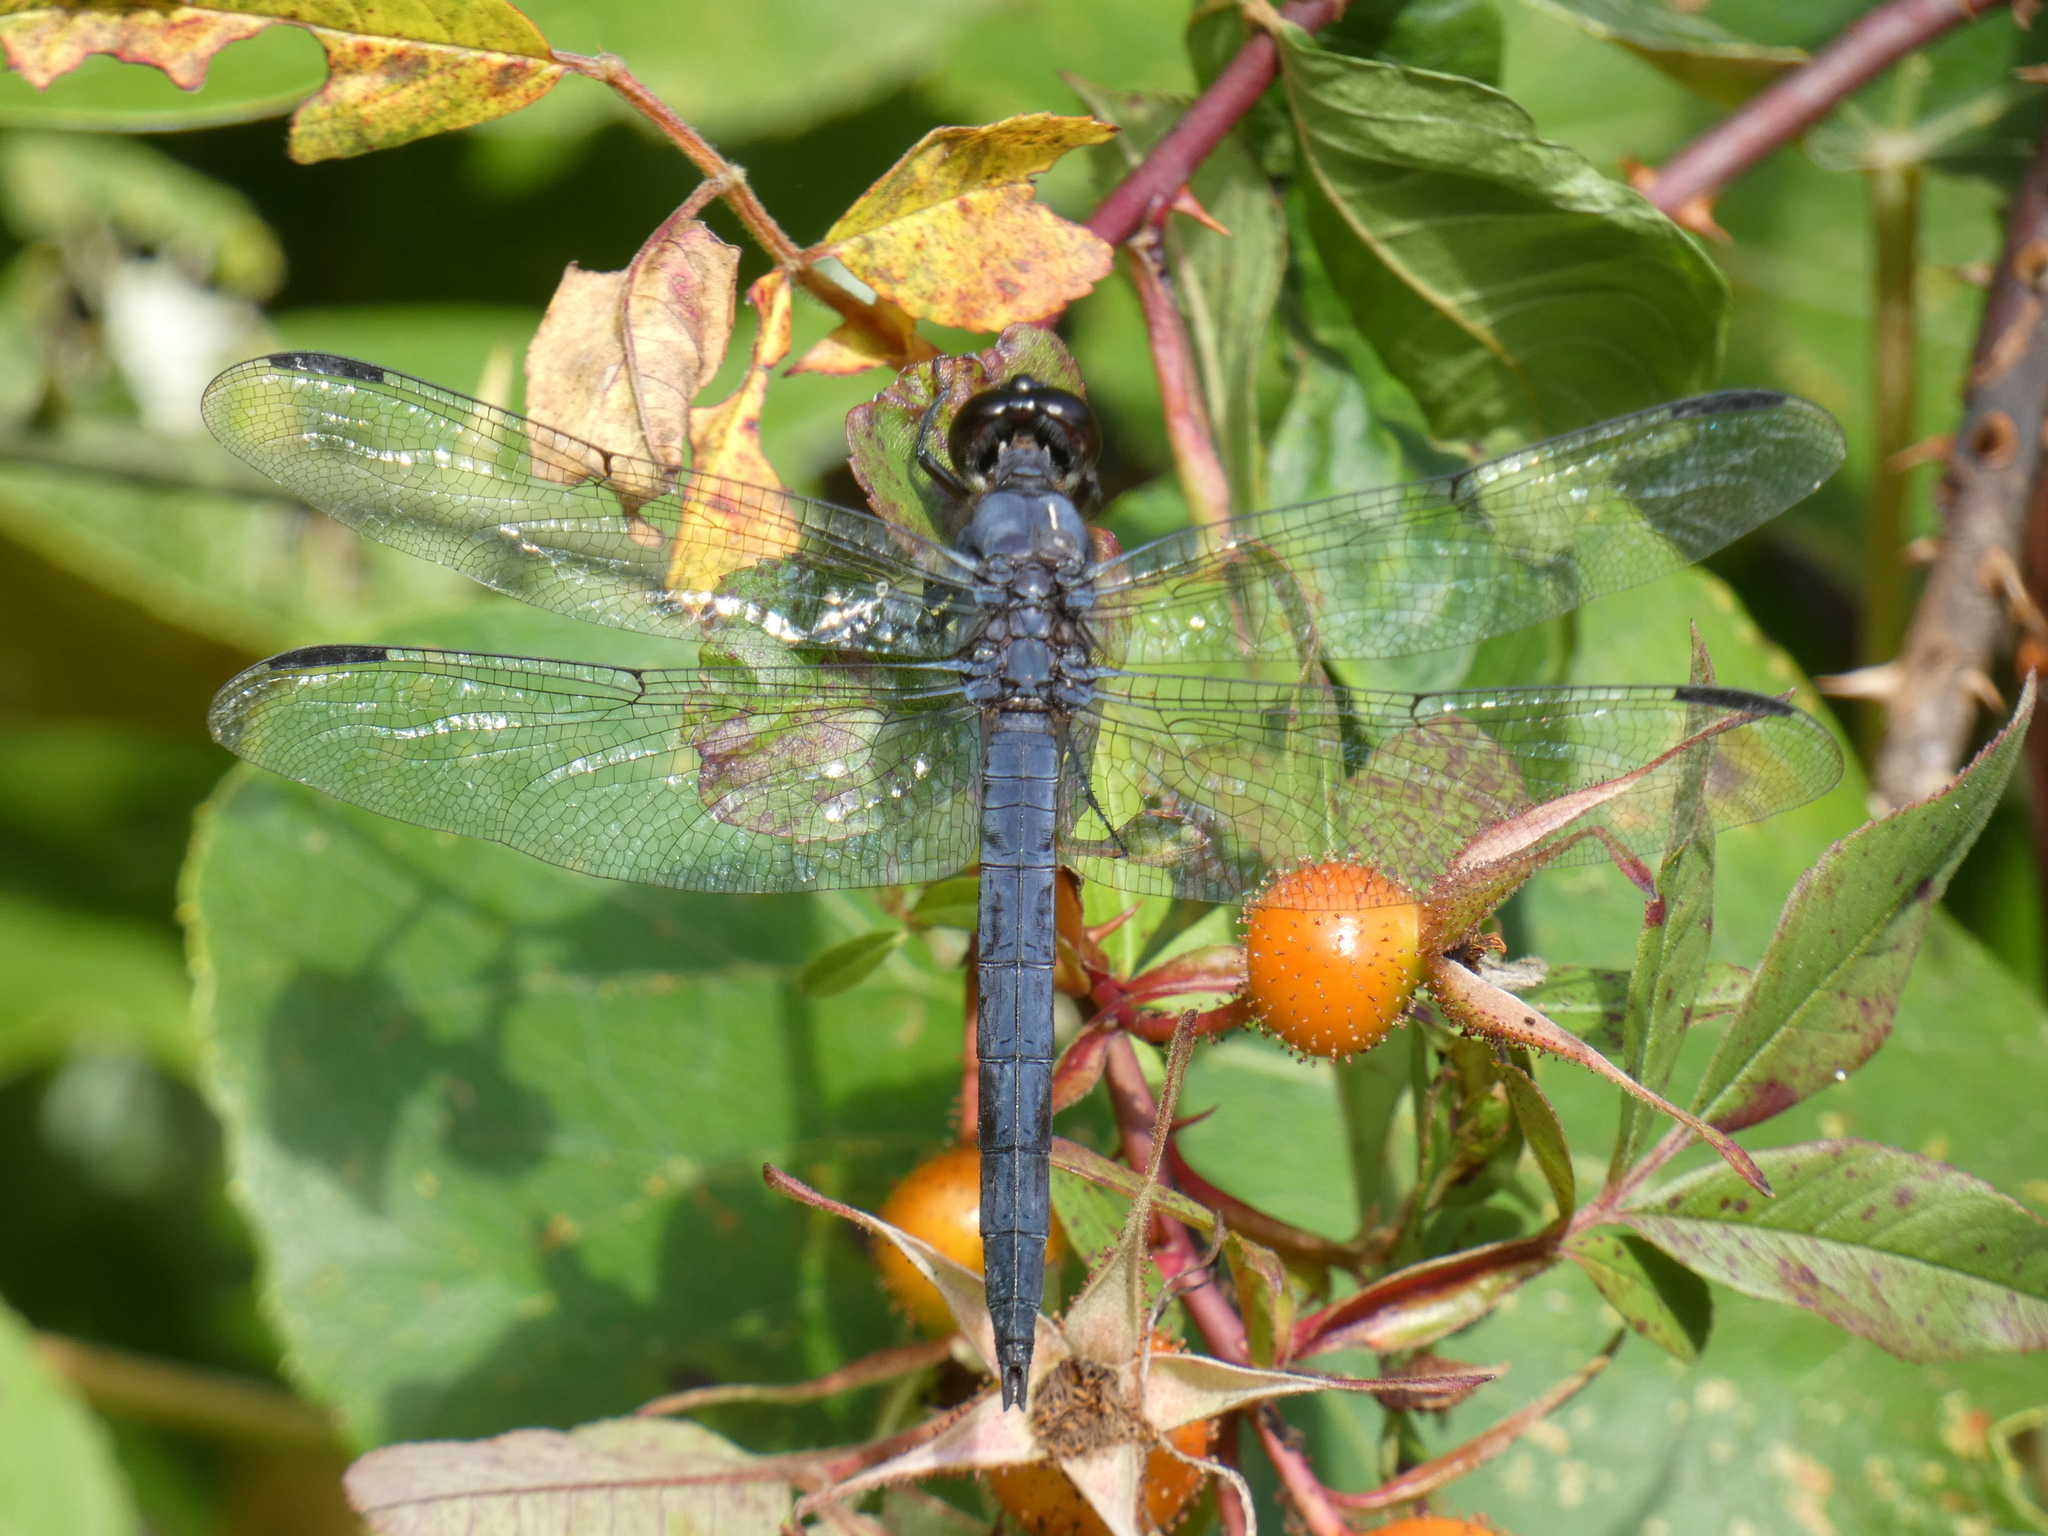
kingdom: Animalia
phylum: Arthropoda
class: Insecta
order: Odonata
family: Libellulidae
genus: Libellula
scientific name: Libellula incesta
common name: Slaty skimmer
